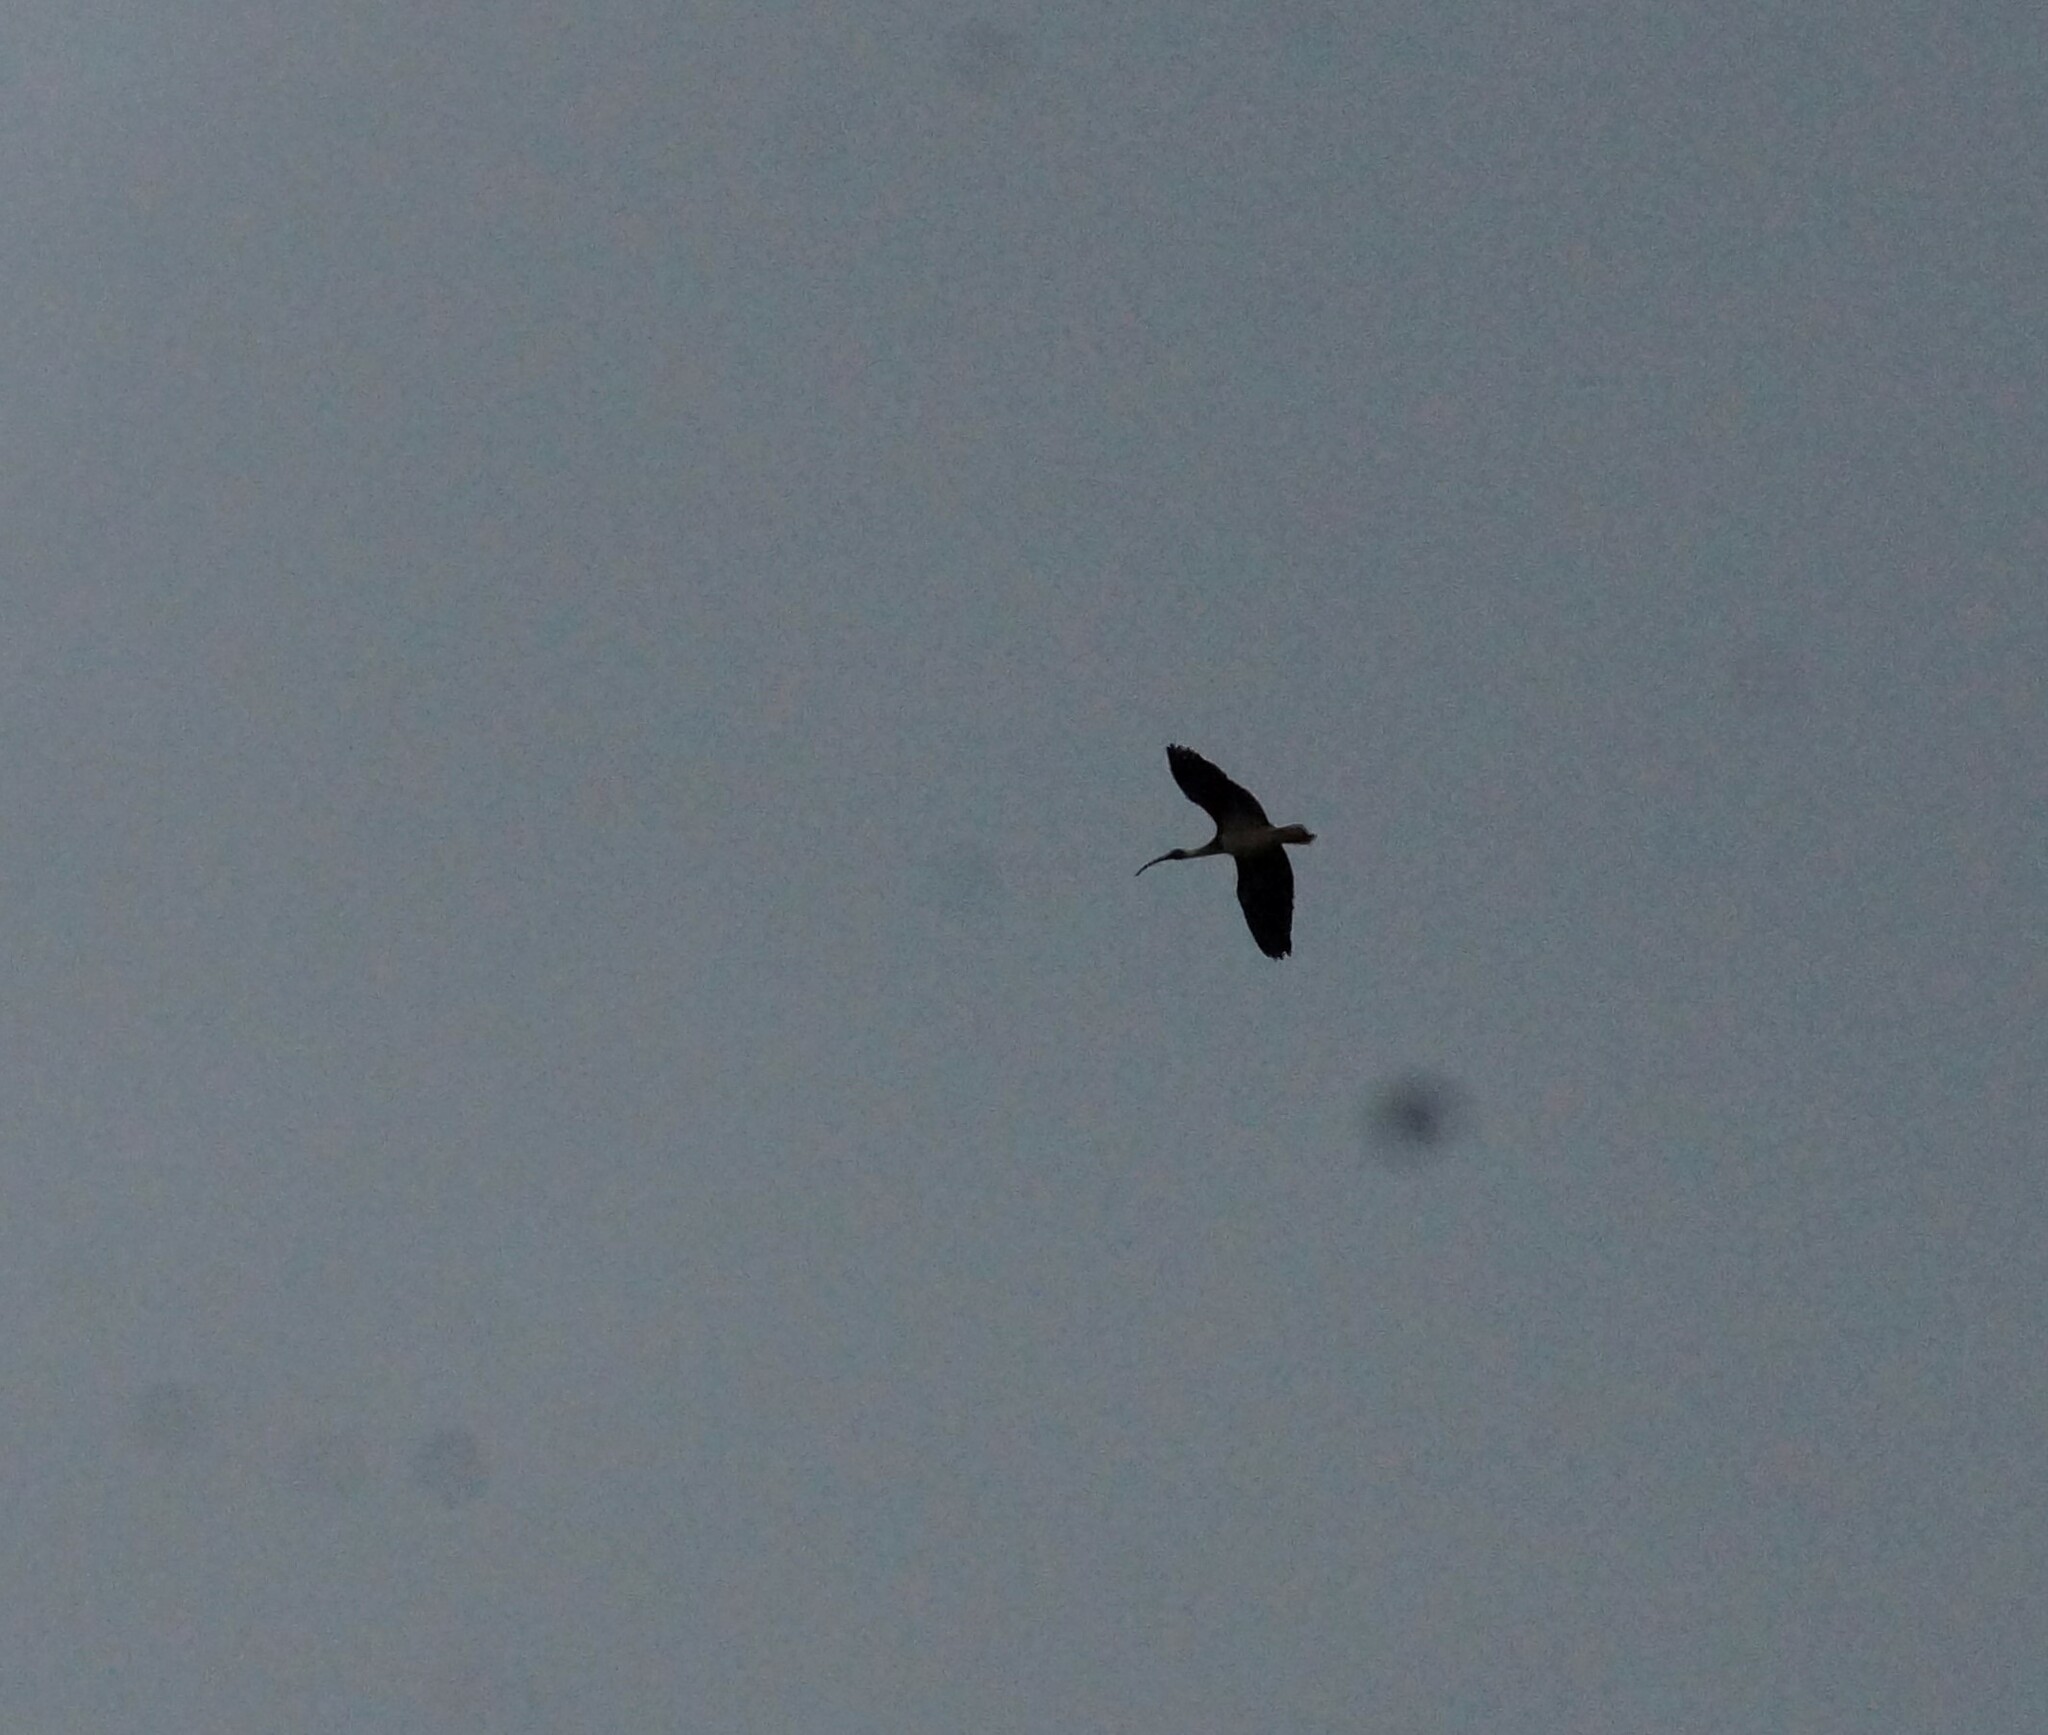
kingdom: Animalia
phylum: Chordata
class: Aves
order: Pelecaniformes
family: Threskiornithidae
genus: Threskiornis
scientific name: Threskiornis spinicollis
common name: Straw-necked ibis
